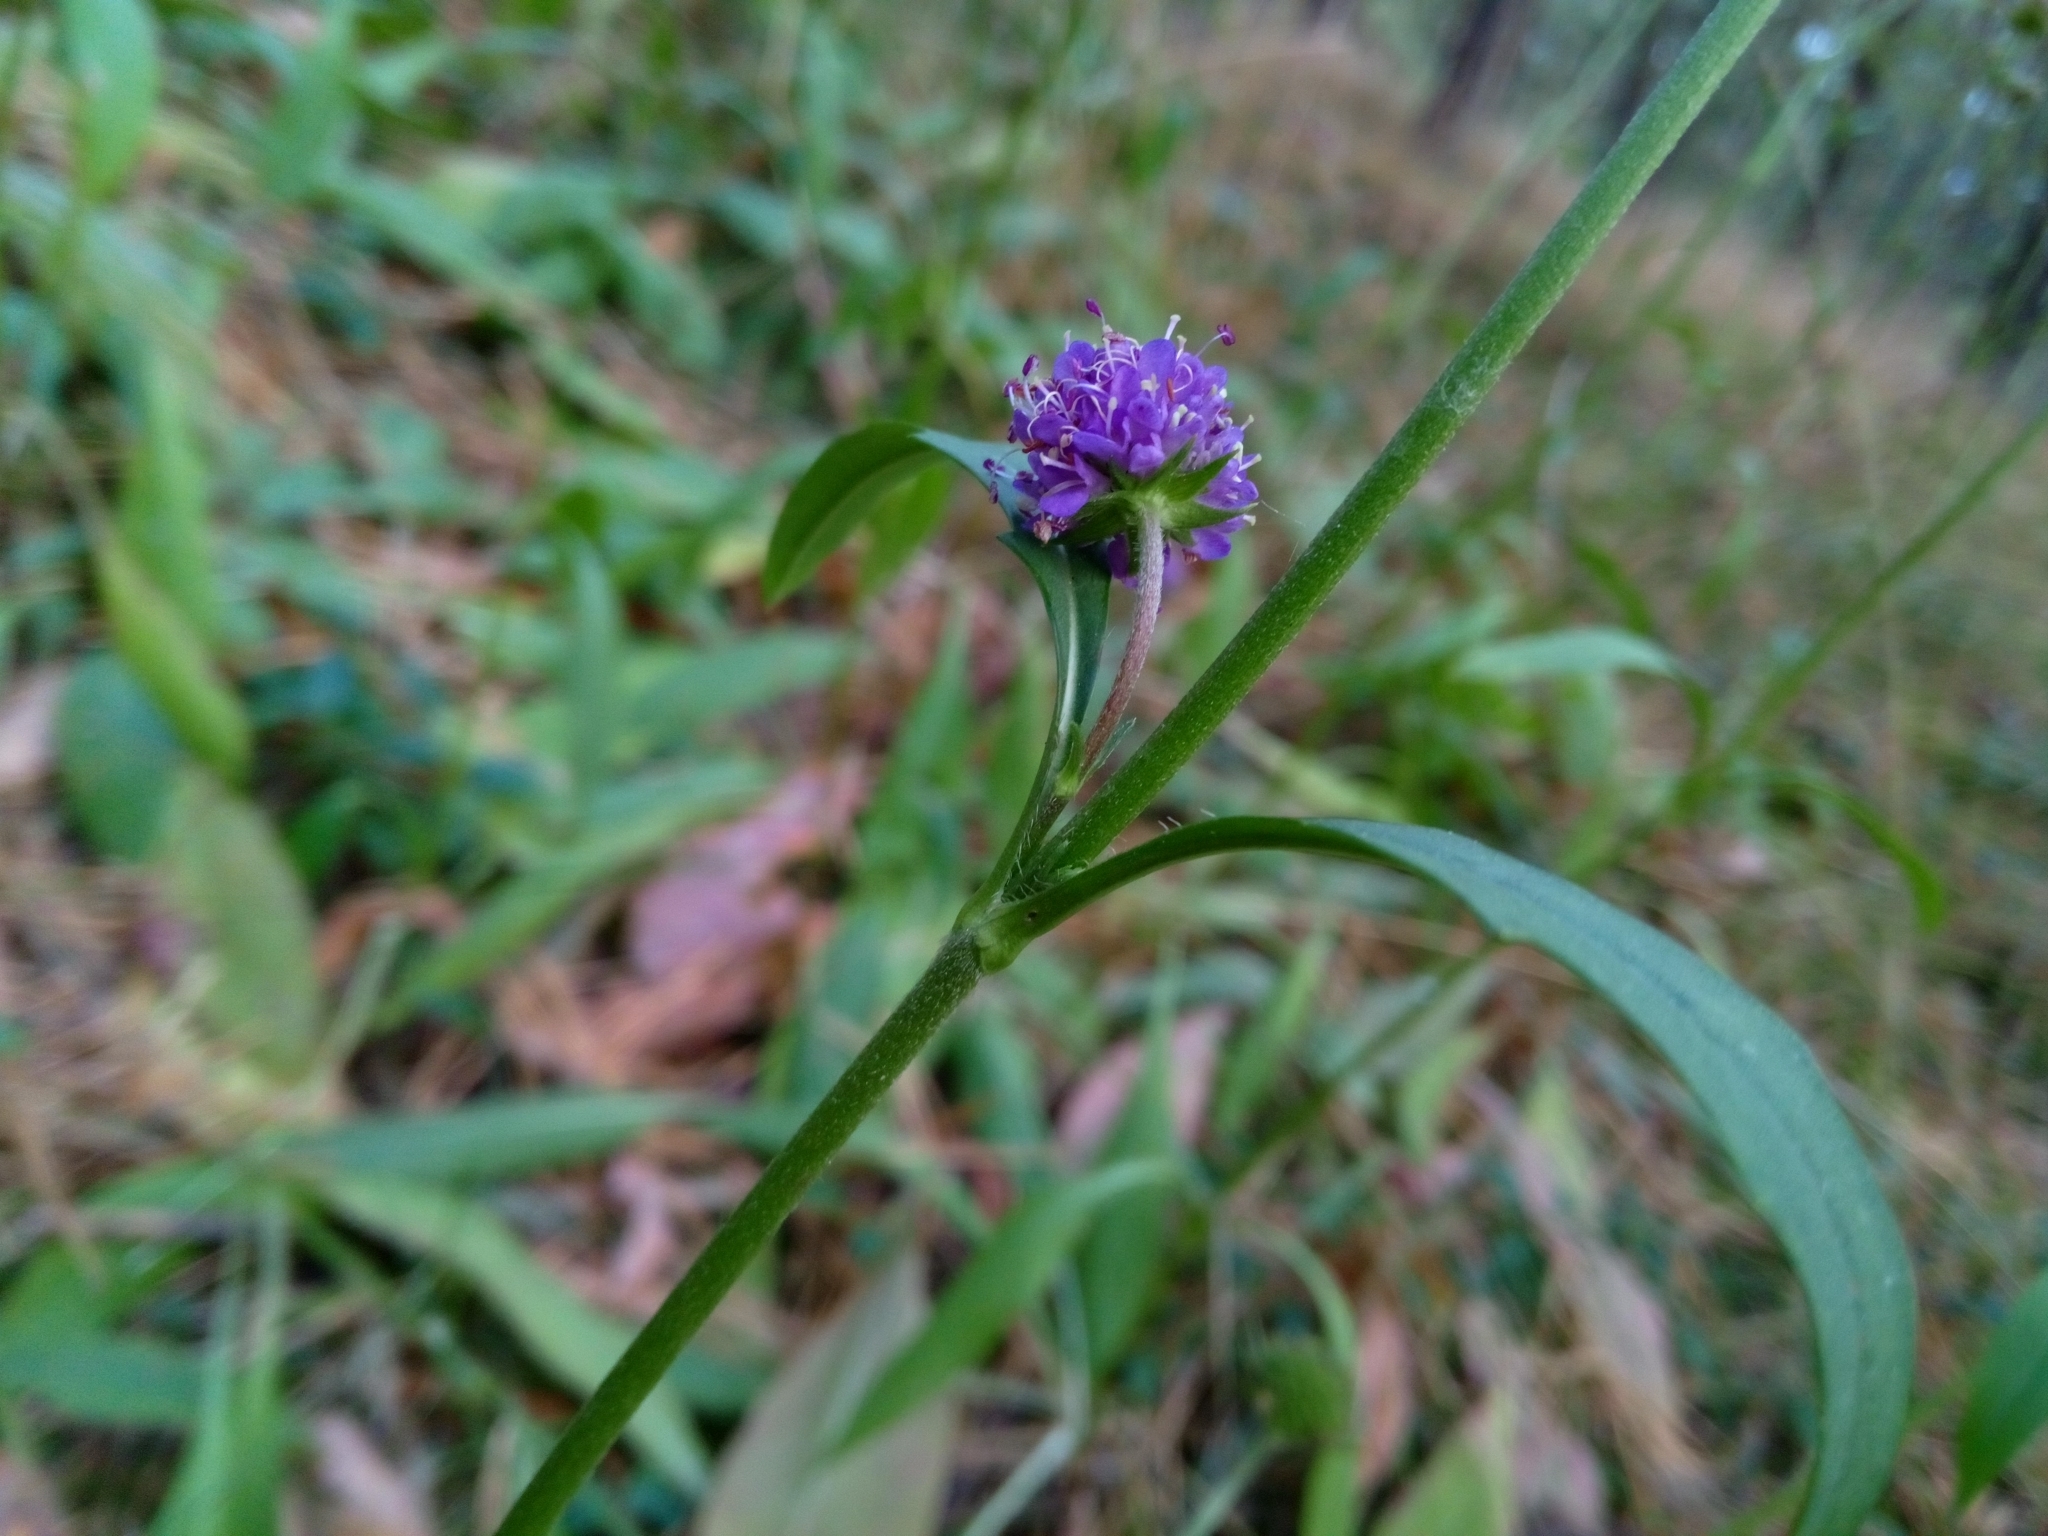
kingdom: Plantae
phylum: Tracheophyta
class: Magnoliopsida
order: Dipsacales
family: Caprifoliaceae
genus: Succisa
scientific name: Succisa pratensis
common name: Devil's-bit
